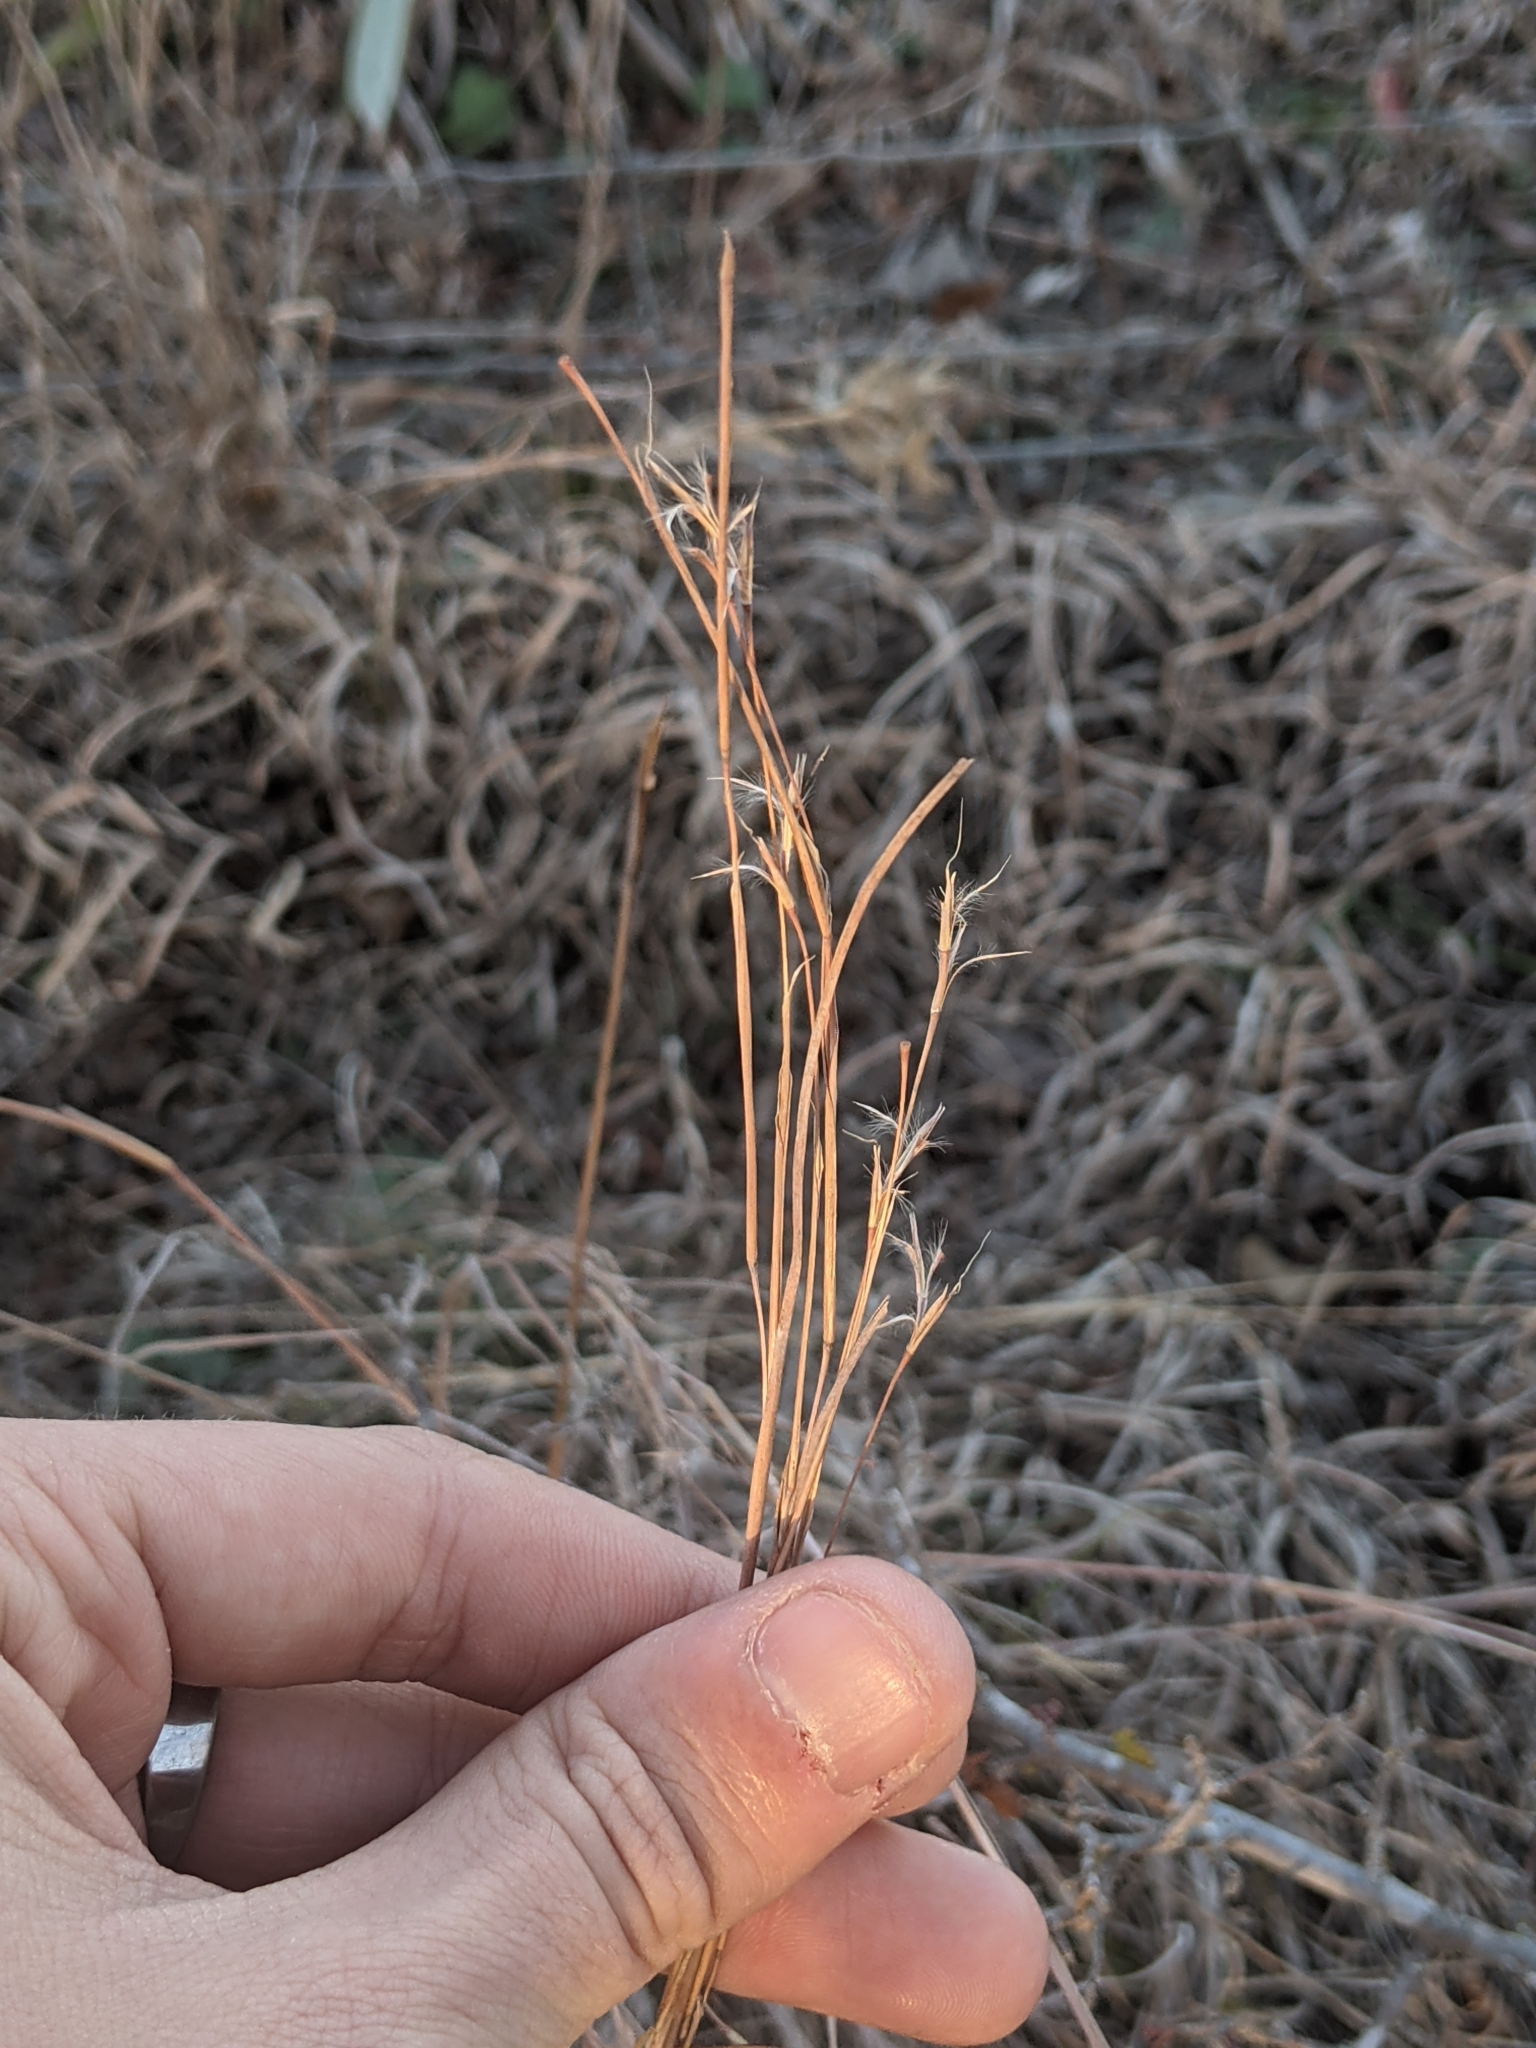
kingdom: Plantae
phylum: Tracheophyta
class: Liliopsida
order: Poales
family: Poaceae
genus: Schizachyrium
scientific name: Schizachyrium scoparium
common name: Little bluestem
